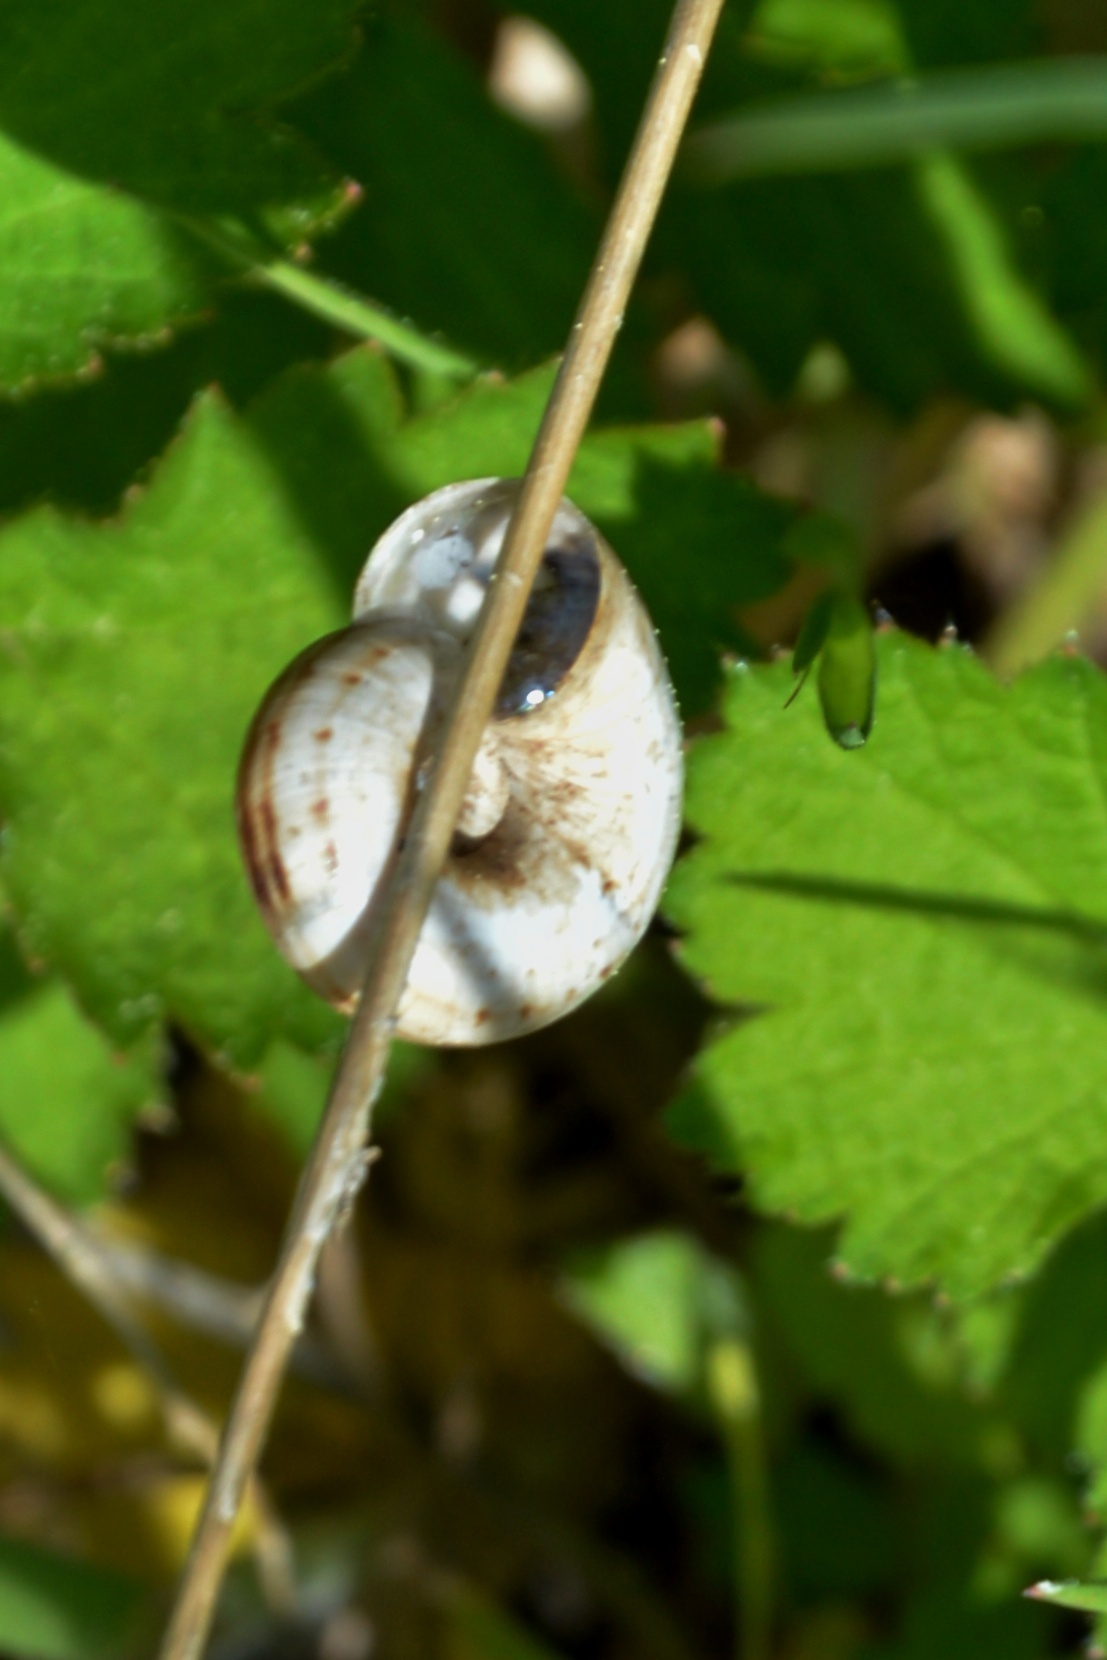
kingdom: Animalia
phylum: Mollusca
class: Gastropoda
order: Stylommatophora
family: Geomitridae
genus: Xerolenta
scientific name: Xerolenta obvia
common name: White heath snail
